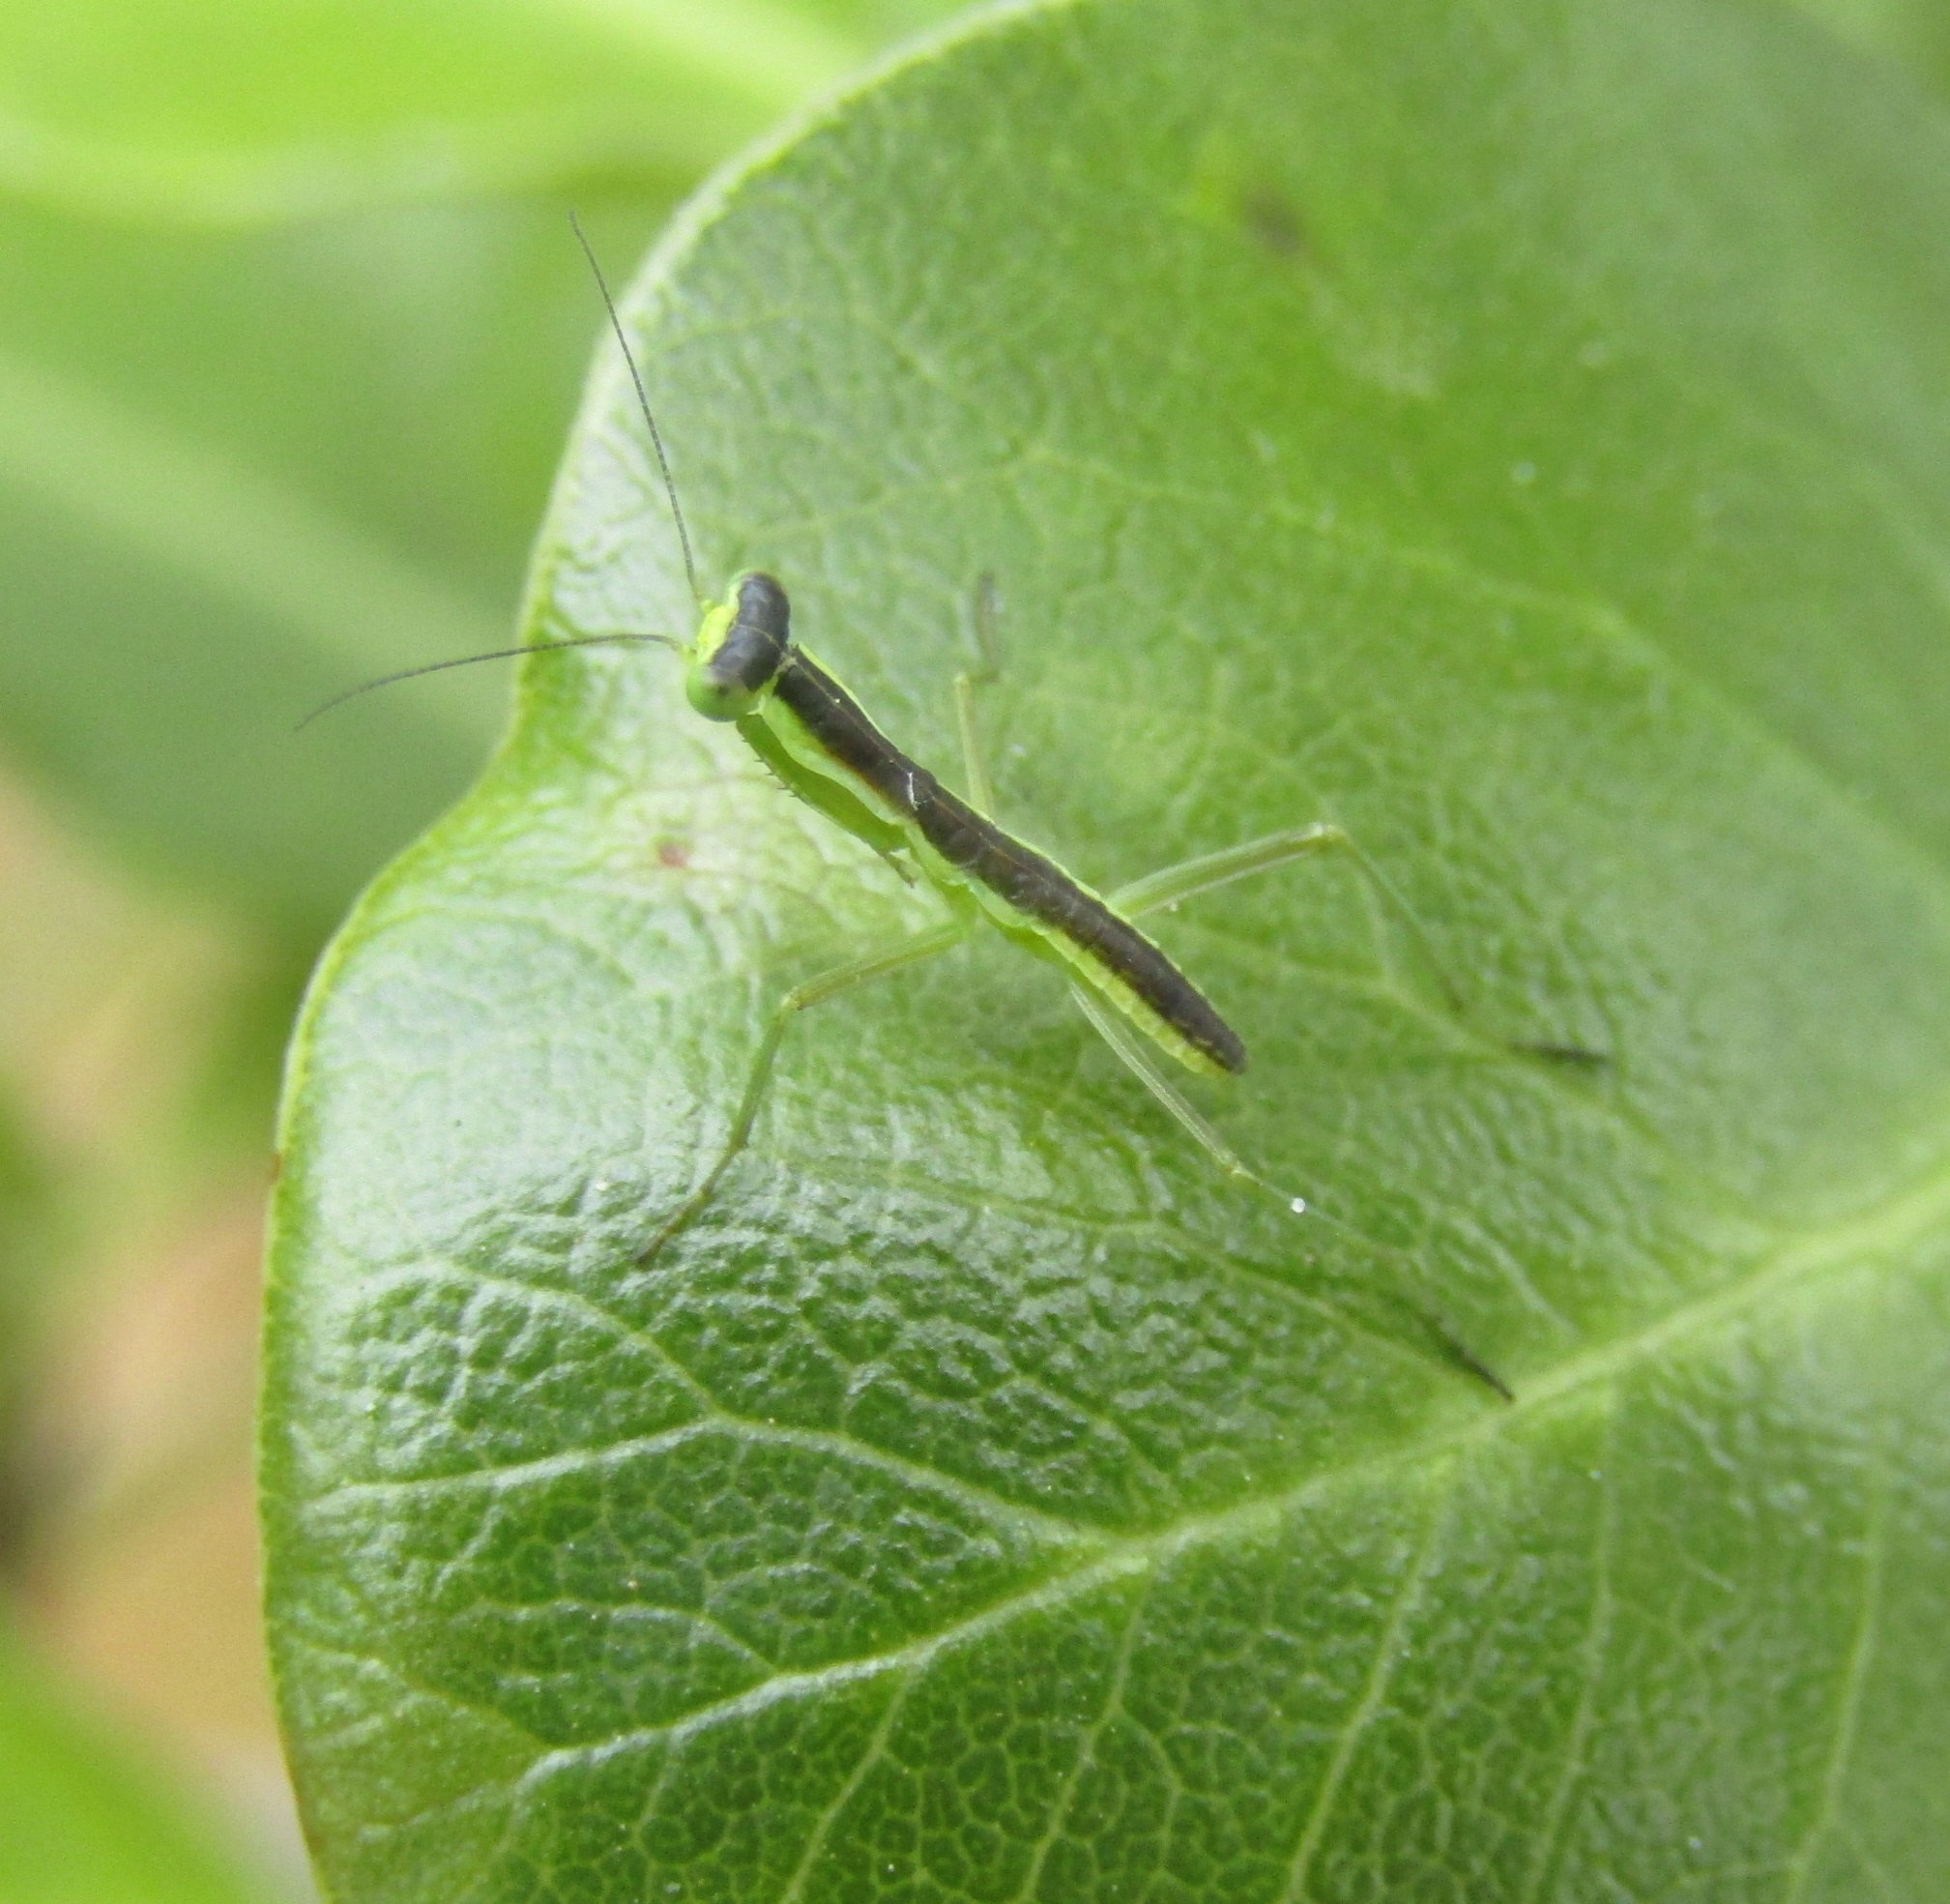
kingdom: Animalia
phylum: Arthropoda
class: Insecta
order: Mantodea
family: Mantidae
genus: Orthodera
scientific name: Orthodera novaezealandiae
